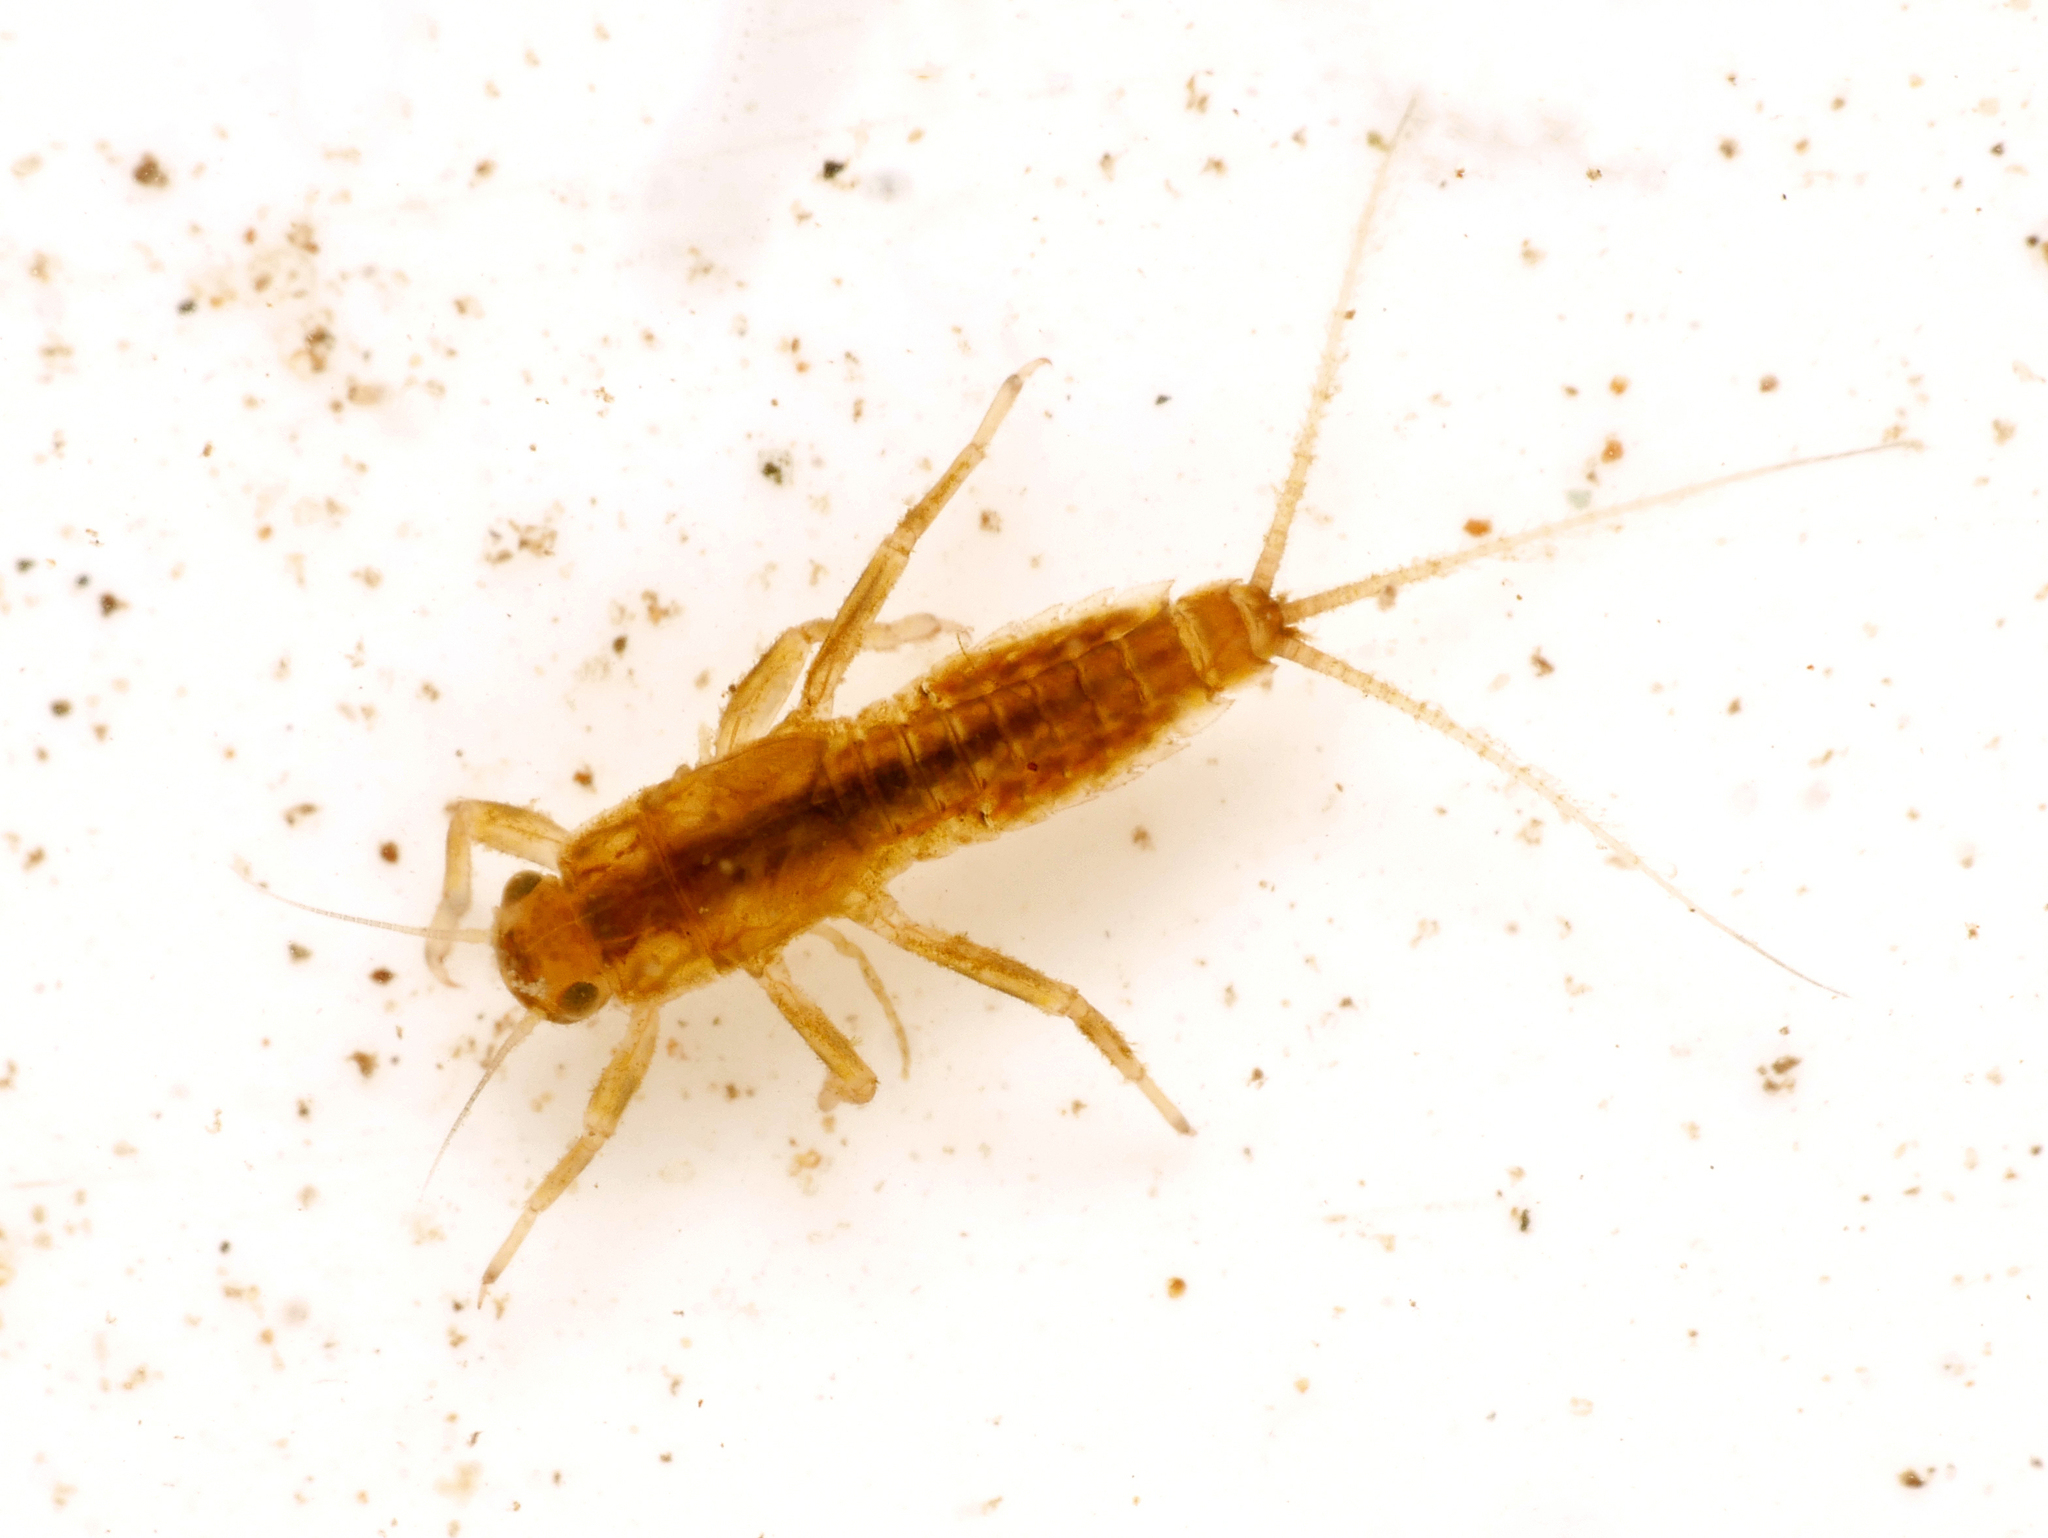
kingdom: Animalia
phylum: Arthropoda
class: Insecta
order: Ephemeroptera
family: Ephemerellidae
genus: Ephemerella
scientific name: Ephemerella notata
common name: Yellow evening hawk
